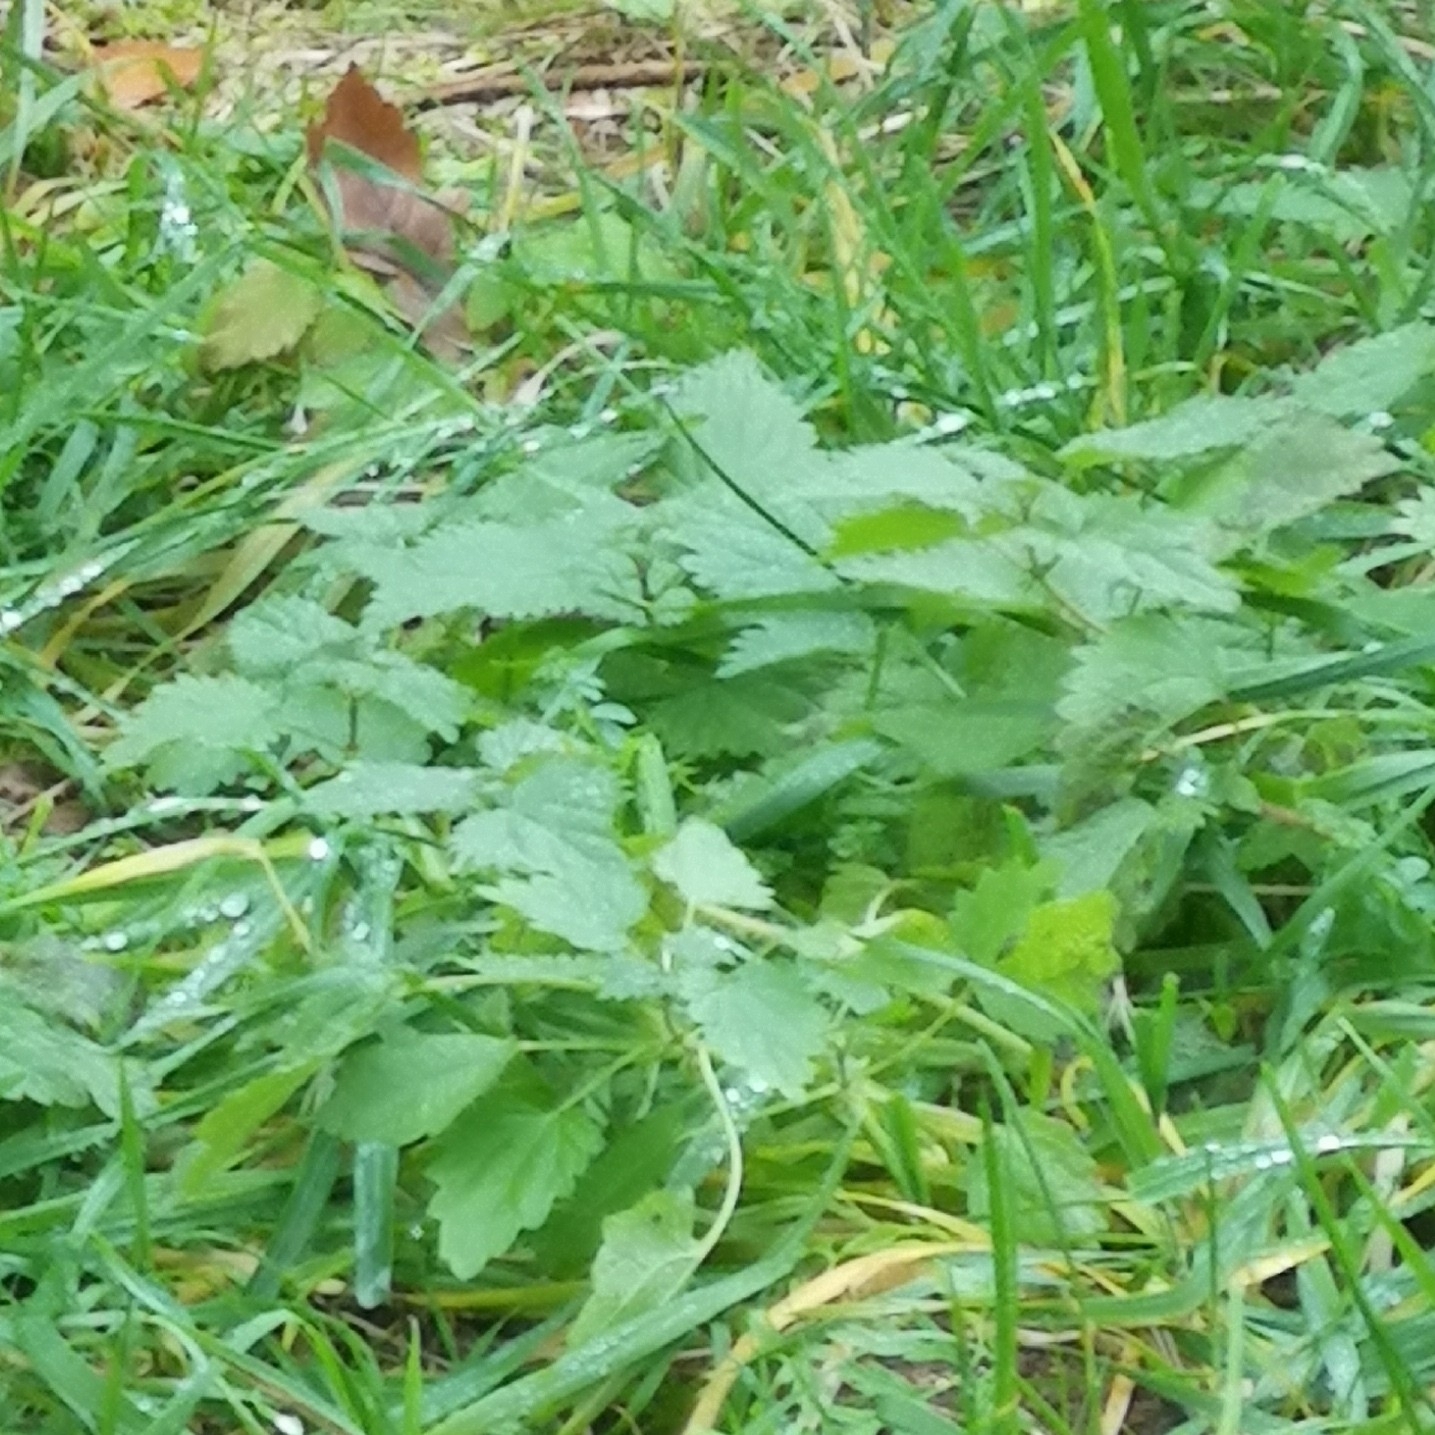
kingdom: Plantae
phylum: Tracheophyta
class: Magnoliopsida
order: Rosales
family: Urticaceae
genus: Urtica
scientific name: Urtica dioica
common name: Common nettle
